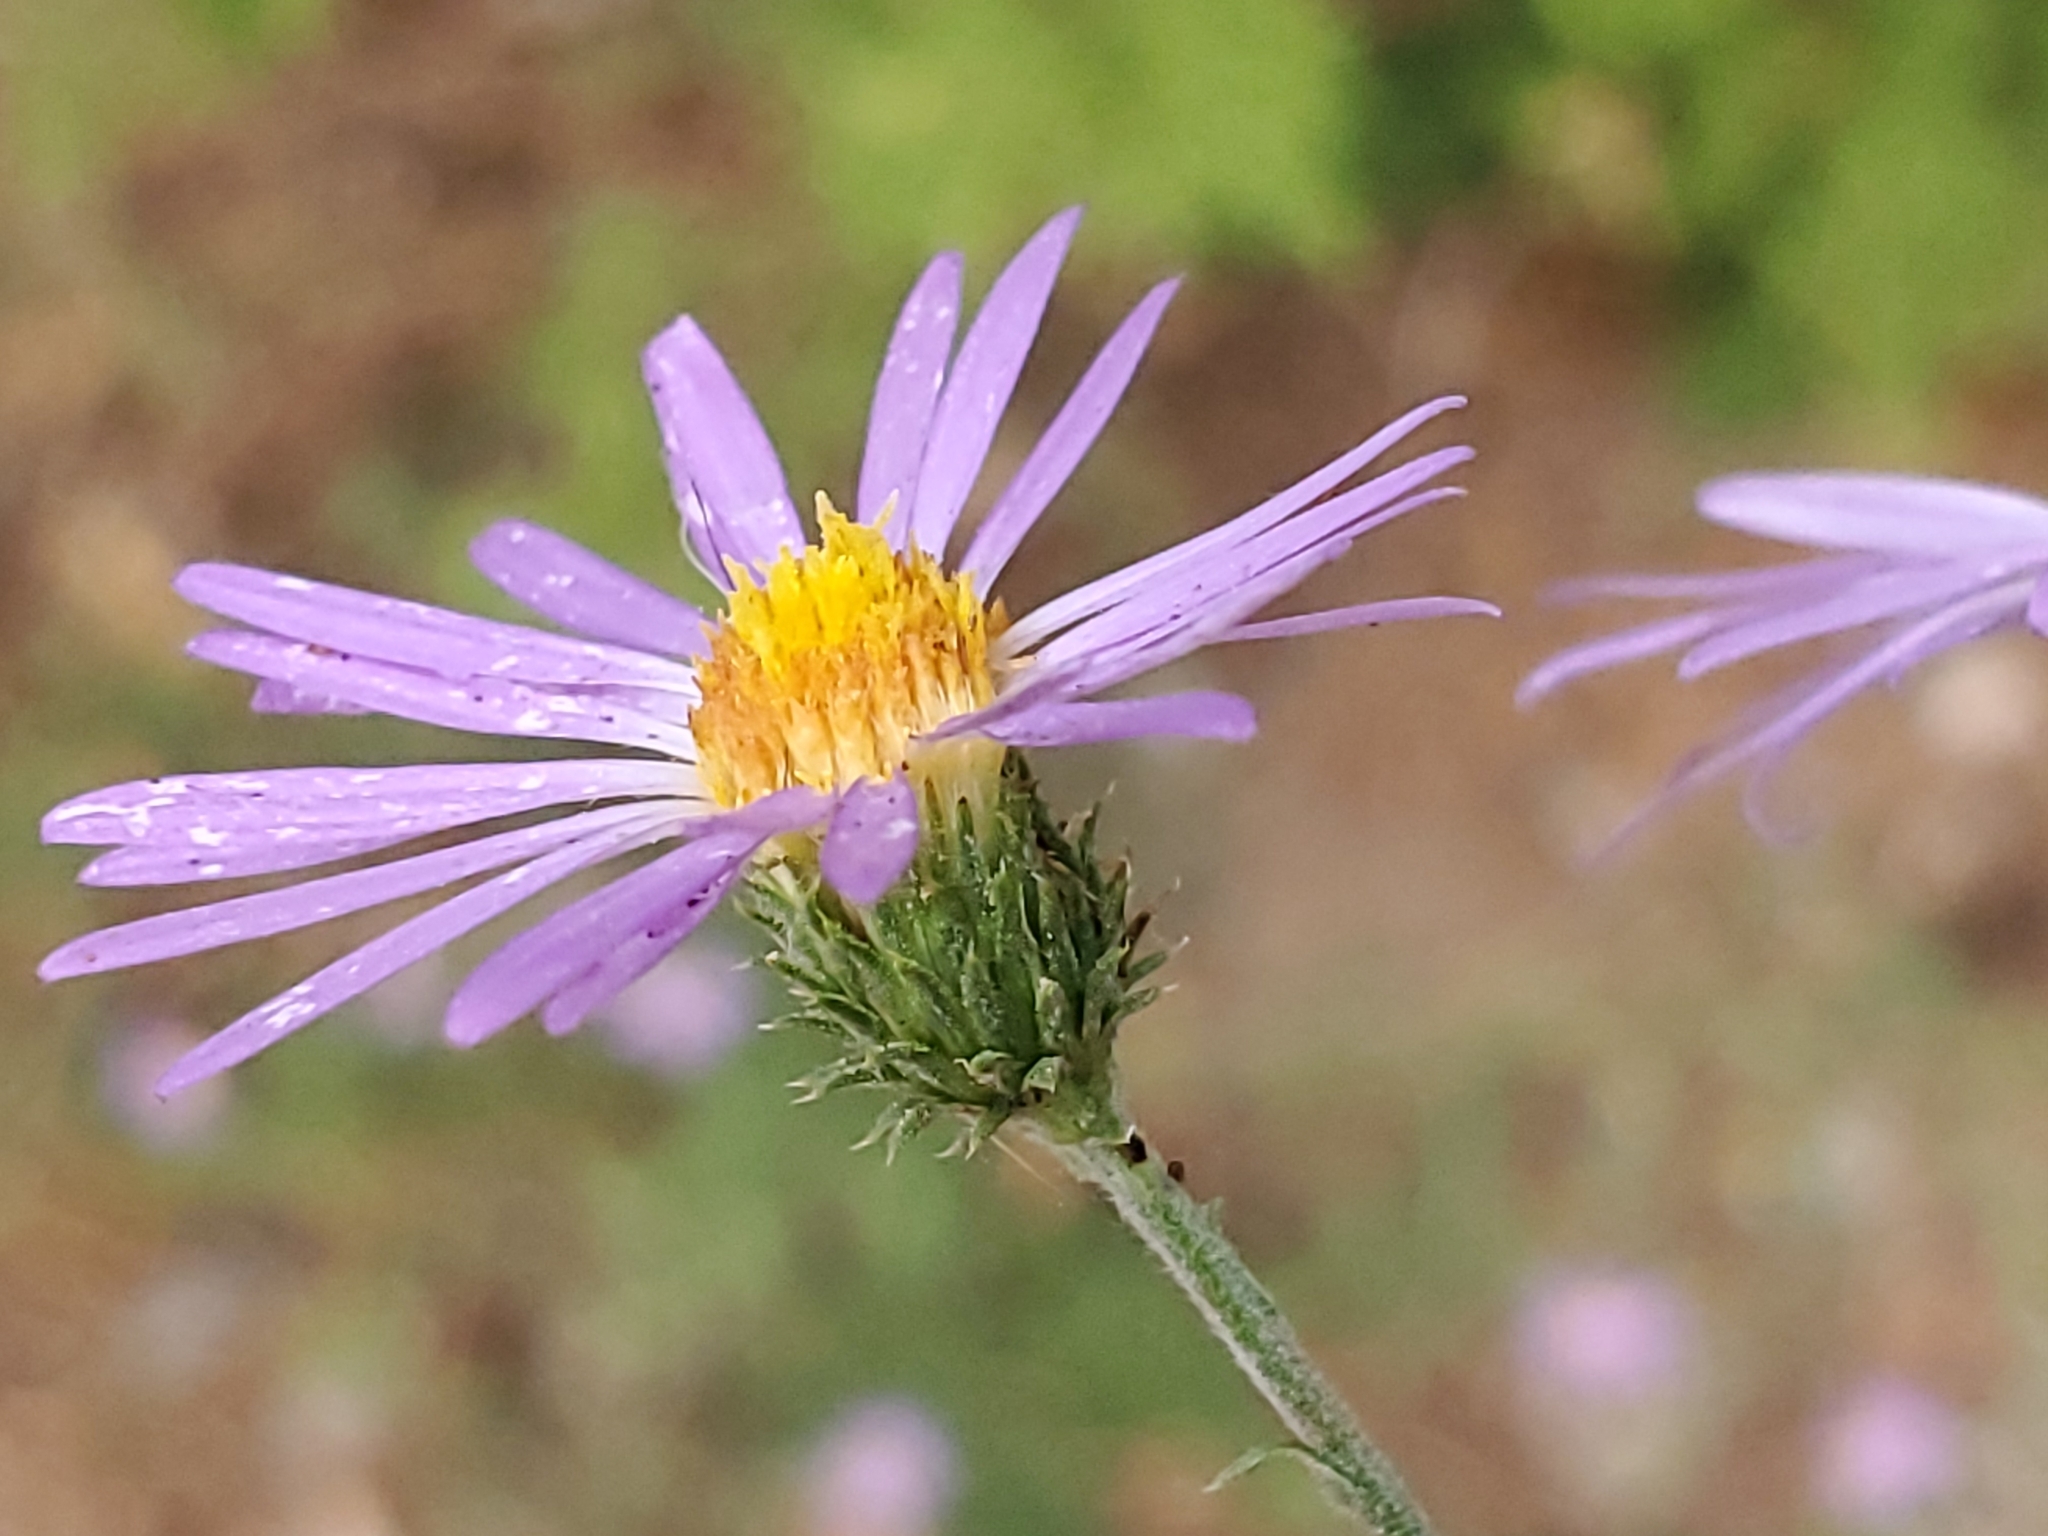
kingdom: Plantae
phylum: Tracheophyta
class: Magnoliopsida
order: Asterales
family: Asteraceae
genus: Dieteria
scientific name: Dieteria canescens
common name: Hoary-aster
